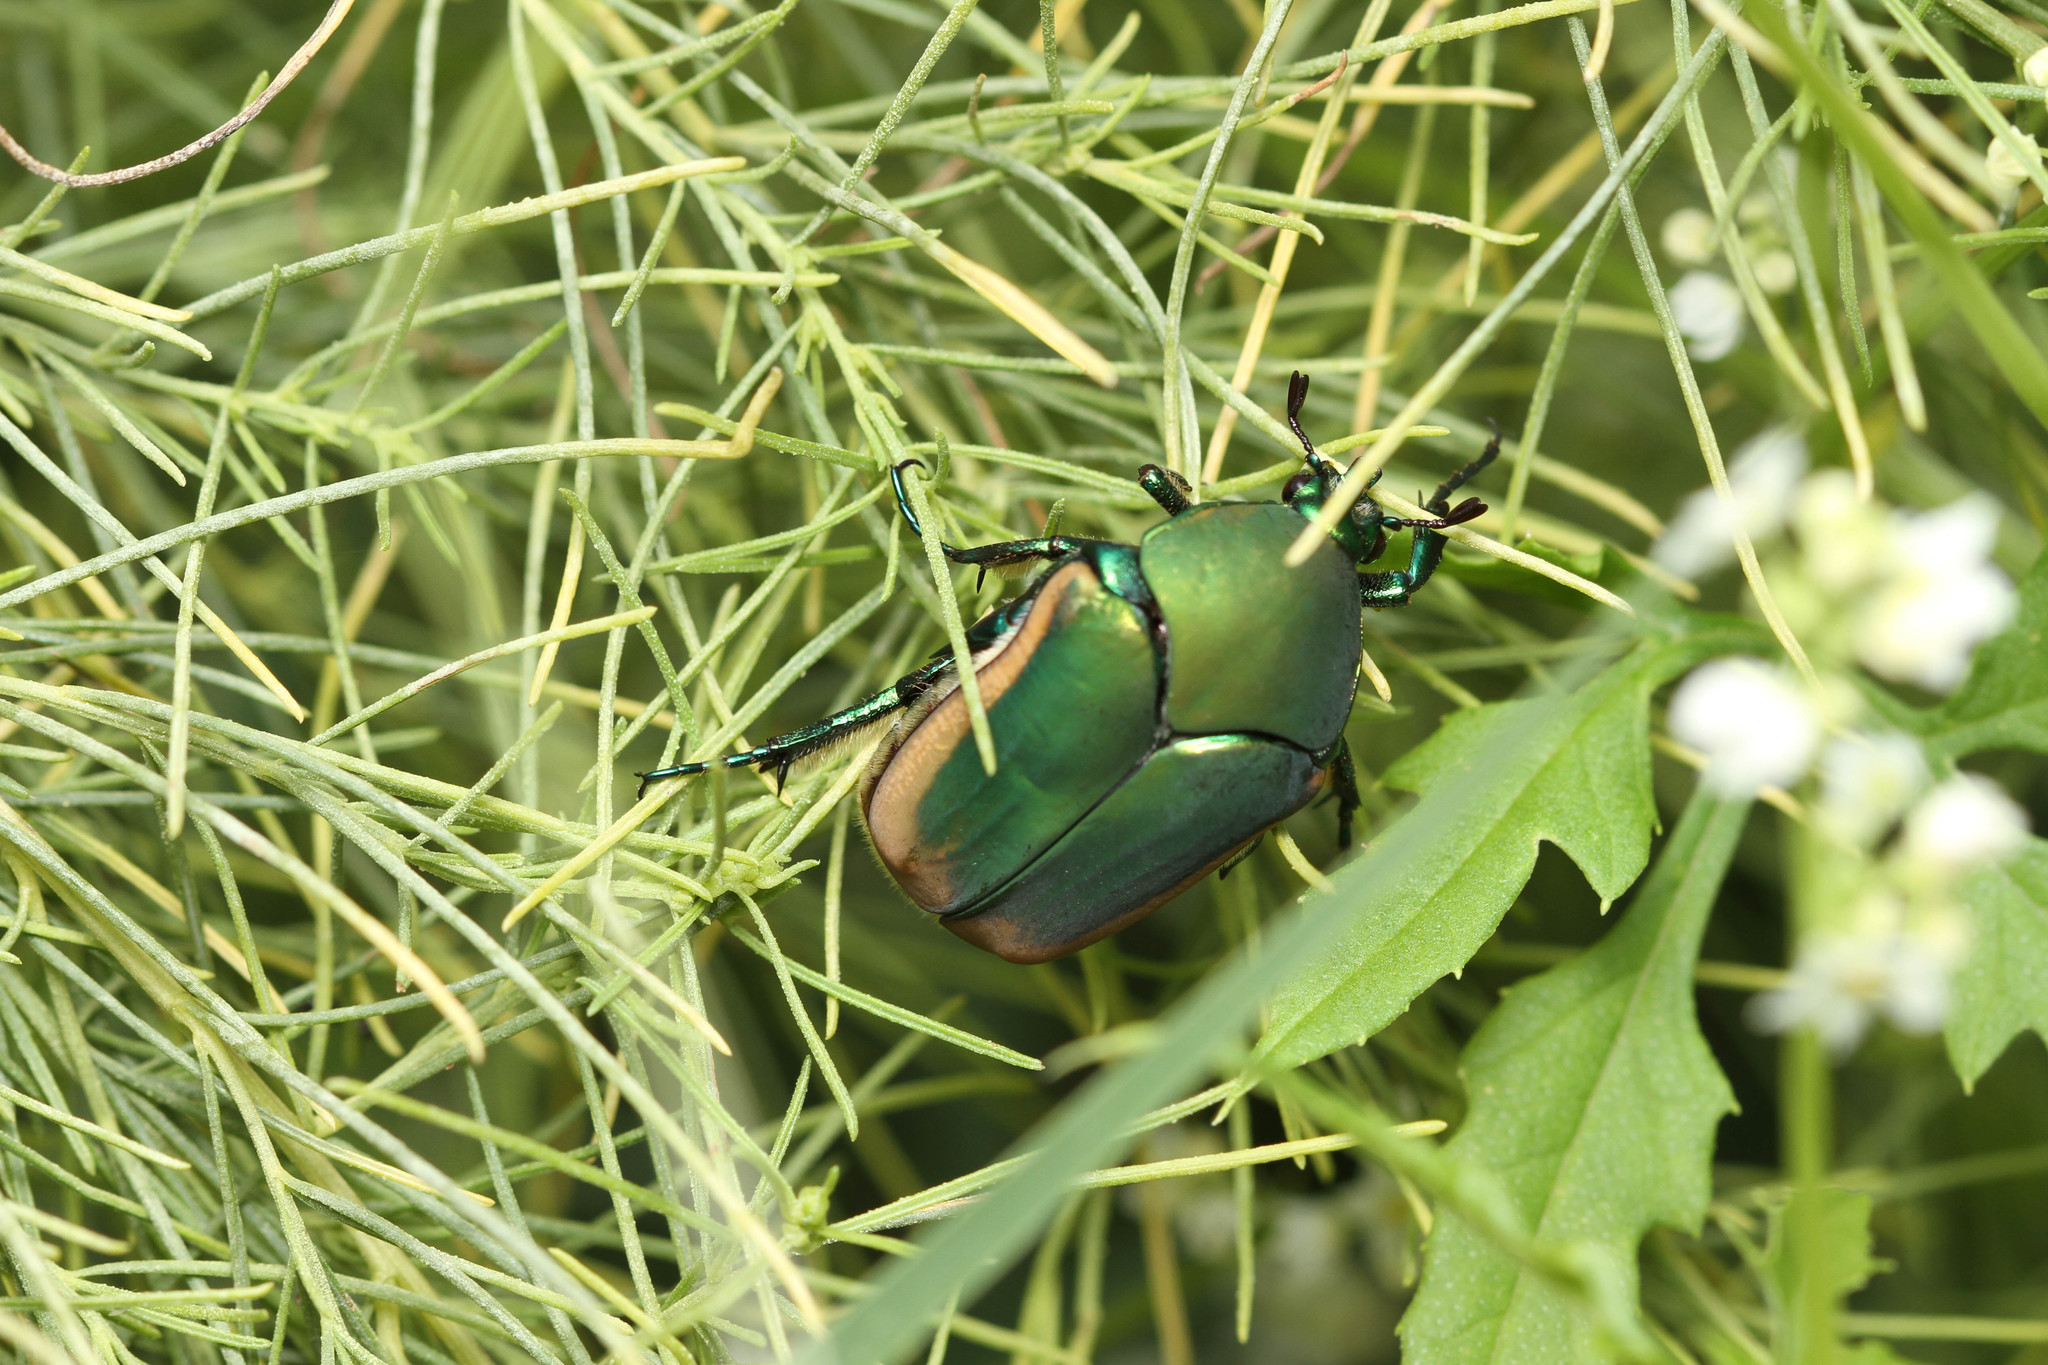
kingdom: Animalia
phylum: Arthropoda
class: Insecta
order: Coleoptera
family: Scarabaeidae
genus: Cotinis
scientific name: Cotinis mutabilis
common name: Figeater beetle
